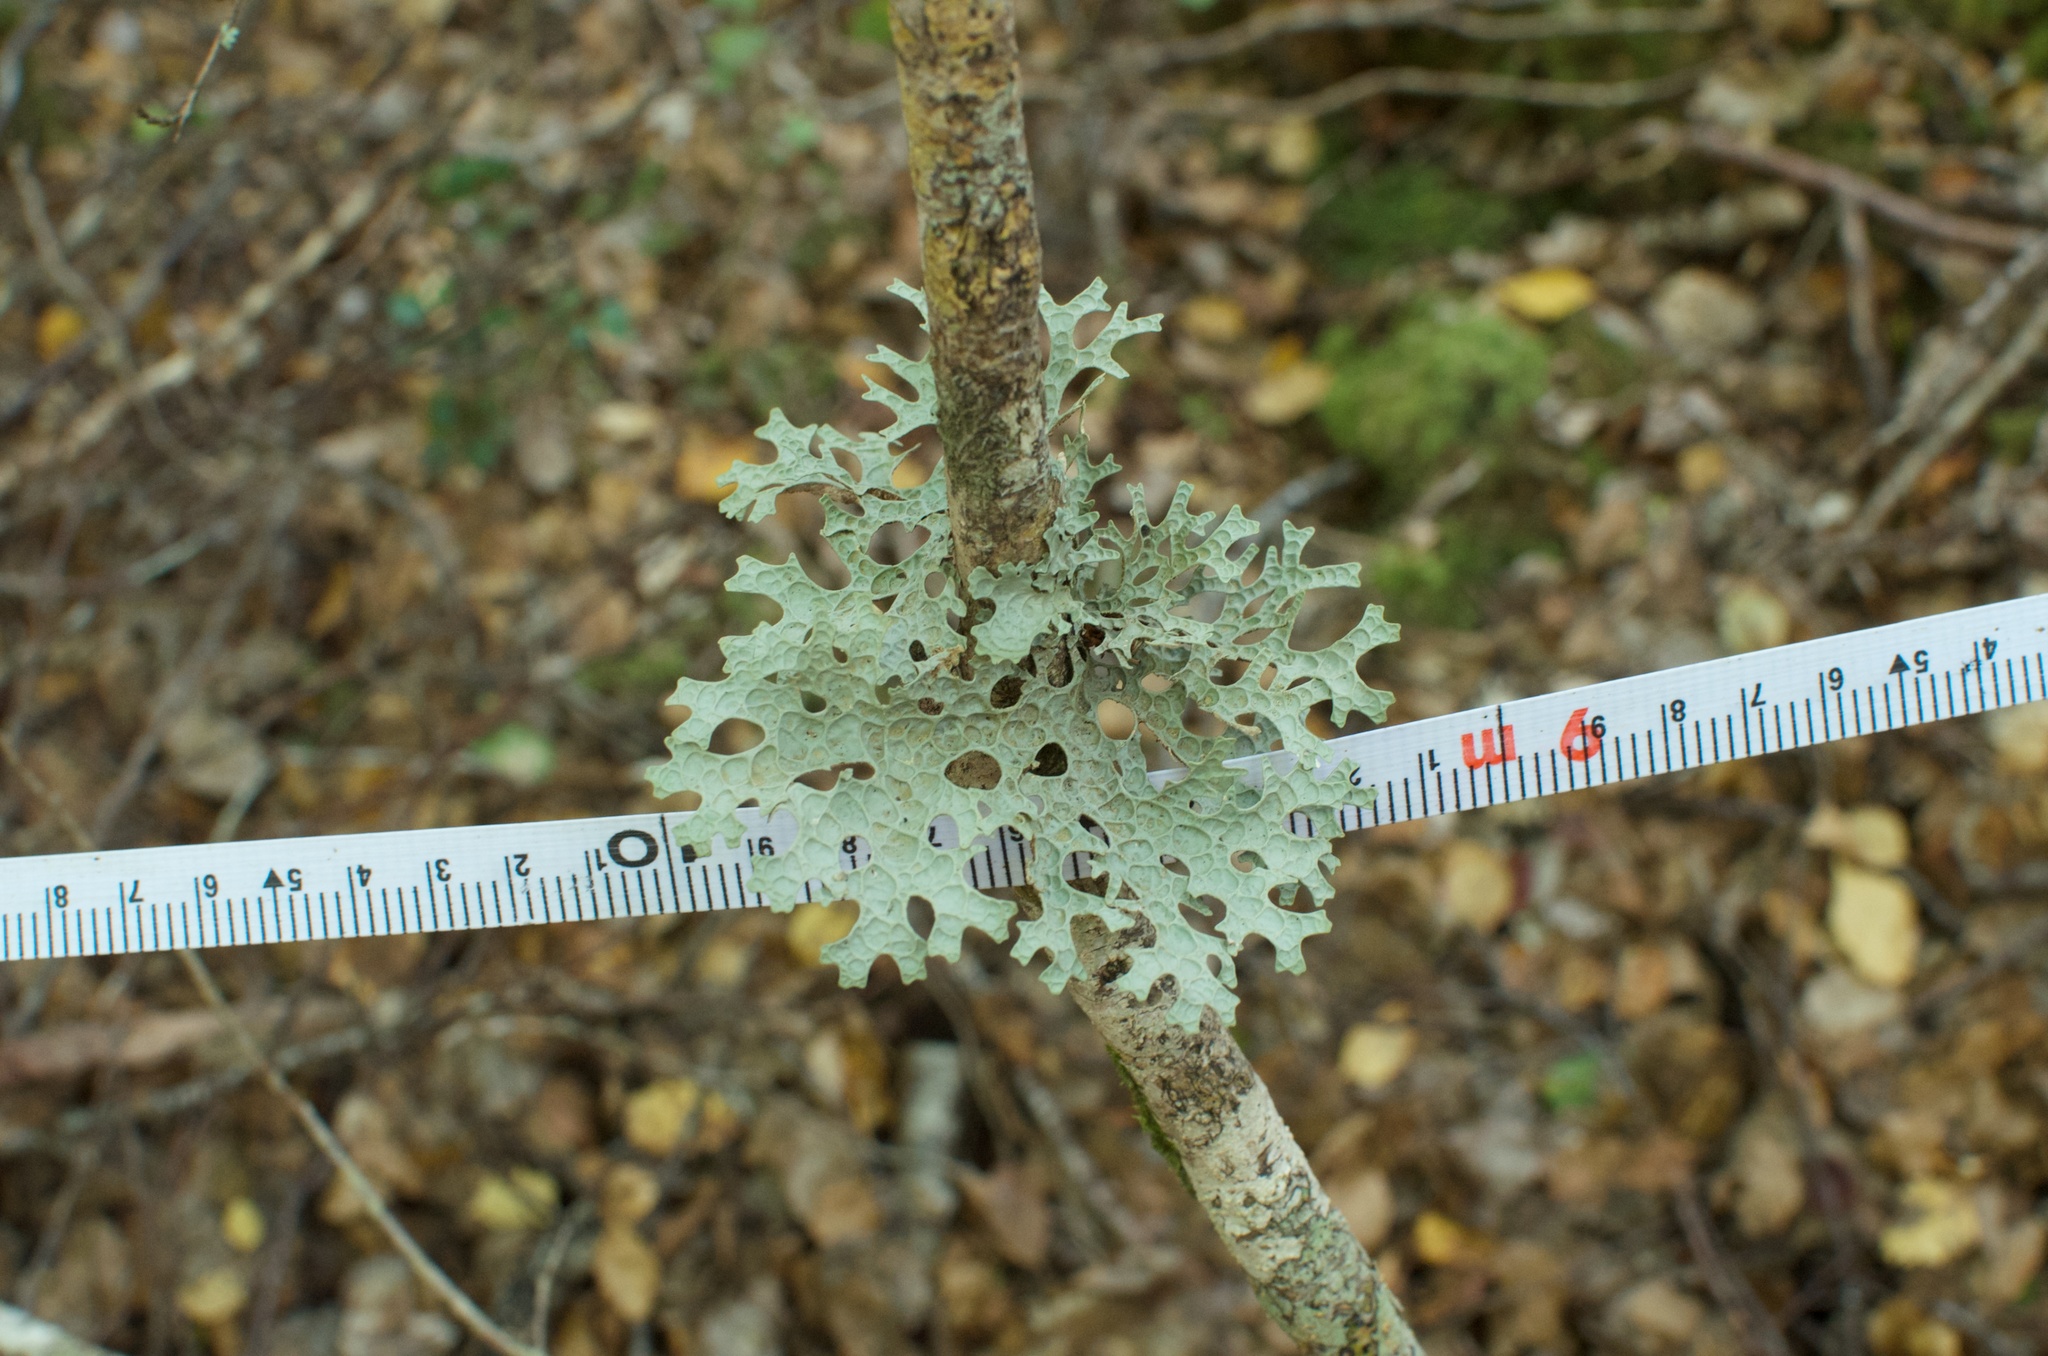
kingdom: Fungi
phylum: Ascomycota
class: Lecanoromycetes
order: Peltigerales
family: Lobariaceae
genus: Pseudocyphellaria
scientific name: Pseudocyphellaria faveolata
